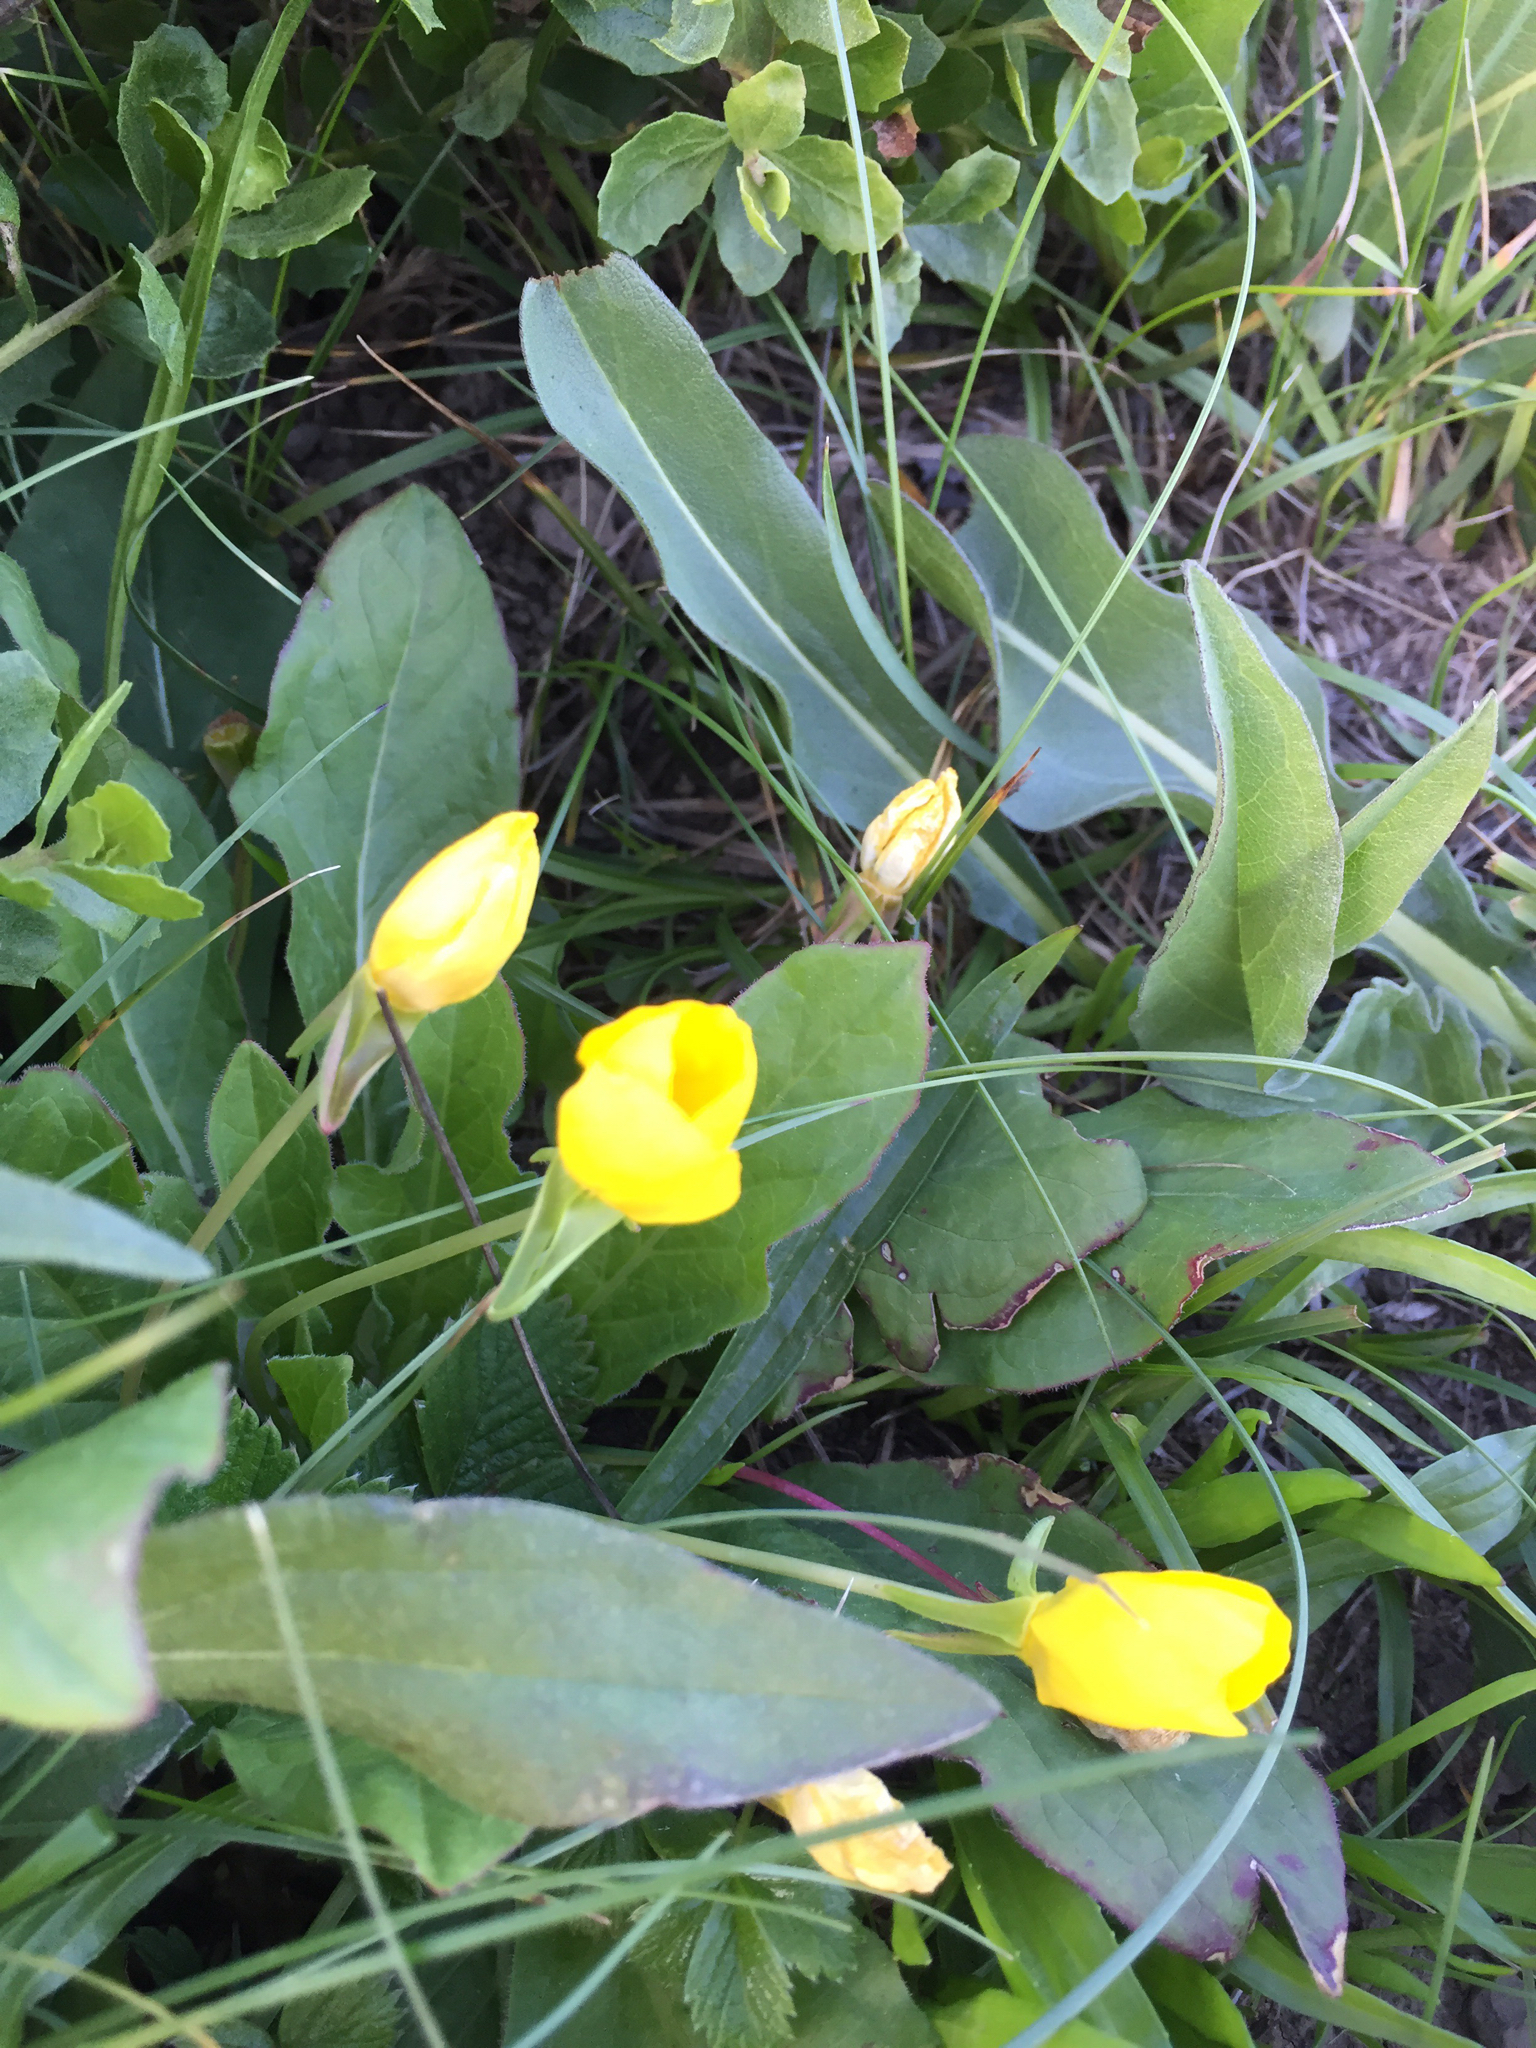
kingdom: Plantae
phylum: Tracheophyta
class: Magnoliopsida
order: Myrtales
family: Onagraceae
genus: Taraxia
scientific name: Taraxia ovata
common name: Goldeneggs
